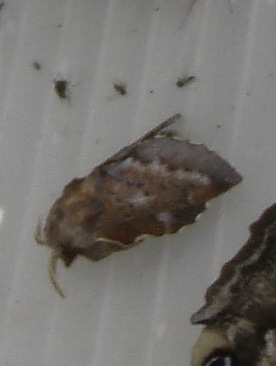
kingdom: Animalia
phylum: Arthropoda
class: Insecta
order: Lepidoptera
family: Lasiocampidae
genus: Phyllodesma
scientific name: Phyllodesma americana
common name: American lappet moth
